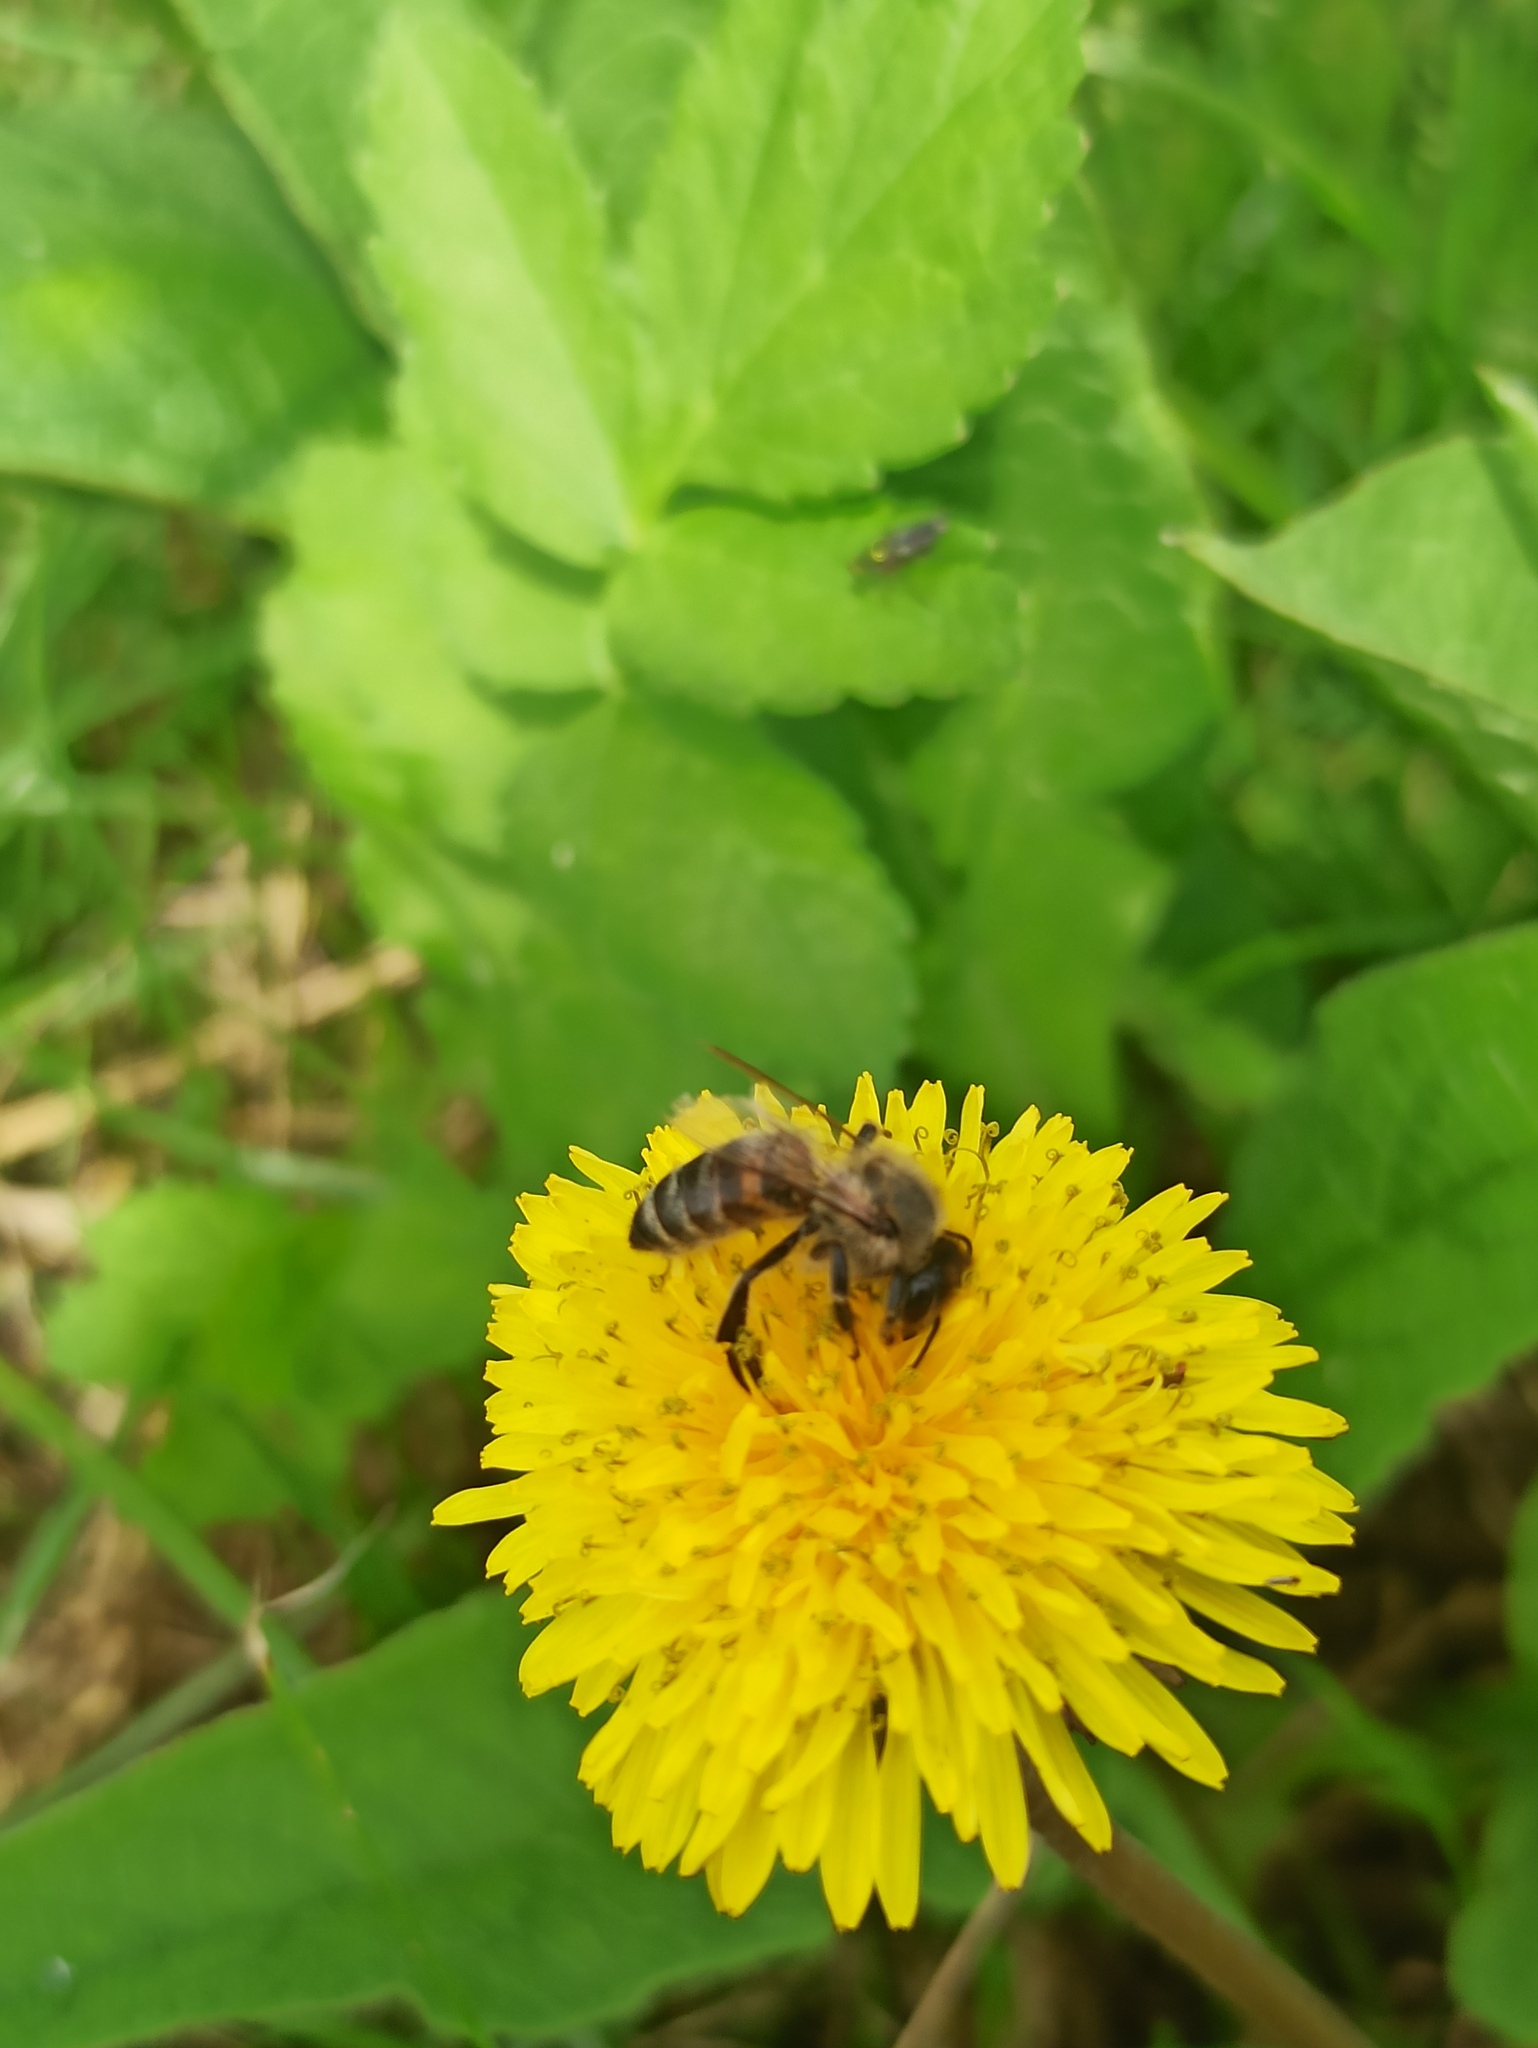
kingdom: Animalia
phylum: Arthropoda
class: Insecta
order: Hymenoptera
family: Apidae
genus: Apis
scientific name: Apis mellifera
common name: Honey bee
